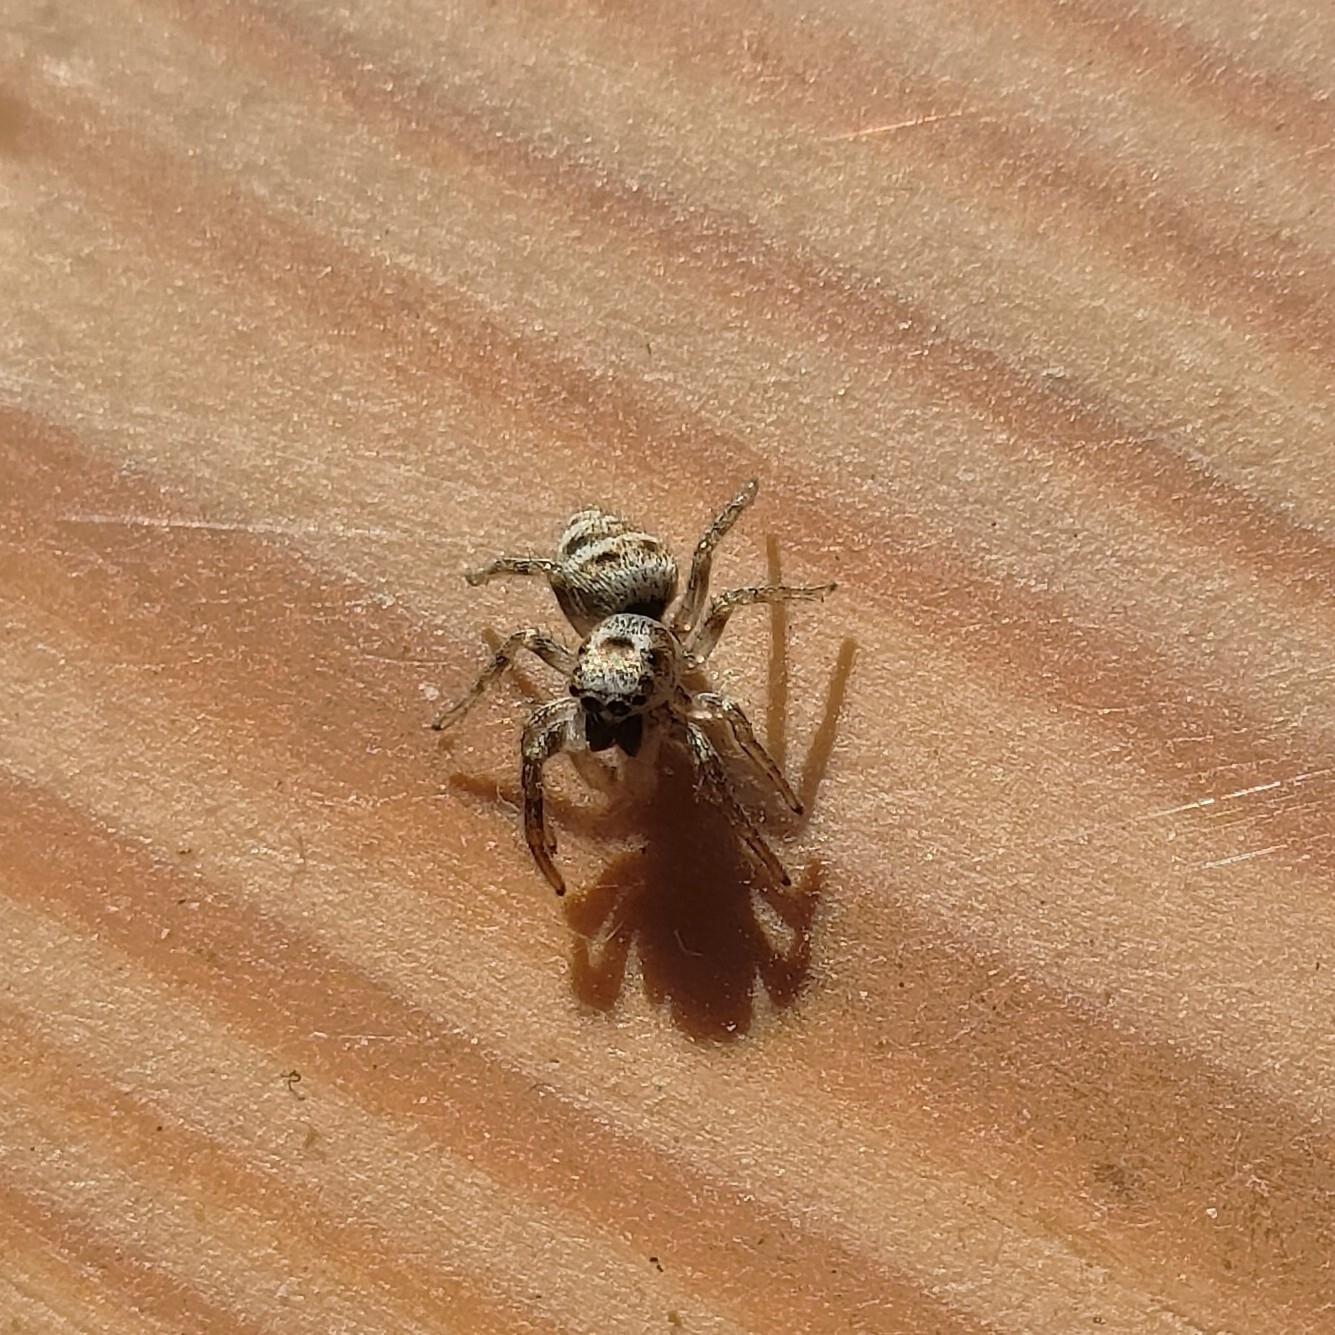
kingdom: Animalia
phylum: Arthropoda
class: Arachnida
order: Araneae
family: Salticidae
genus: Salticus
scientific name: Salticus scenicus
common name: Zebra jumper
